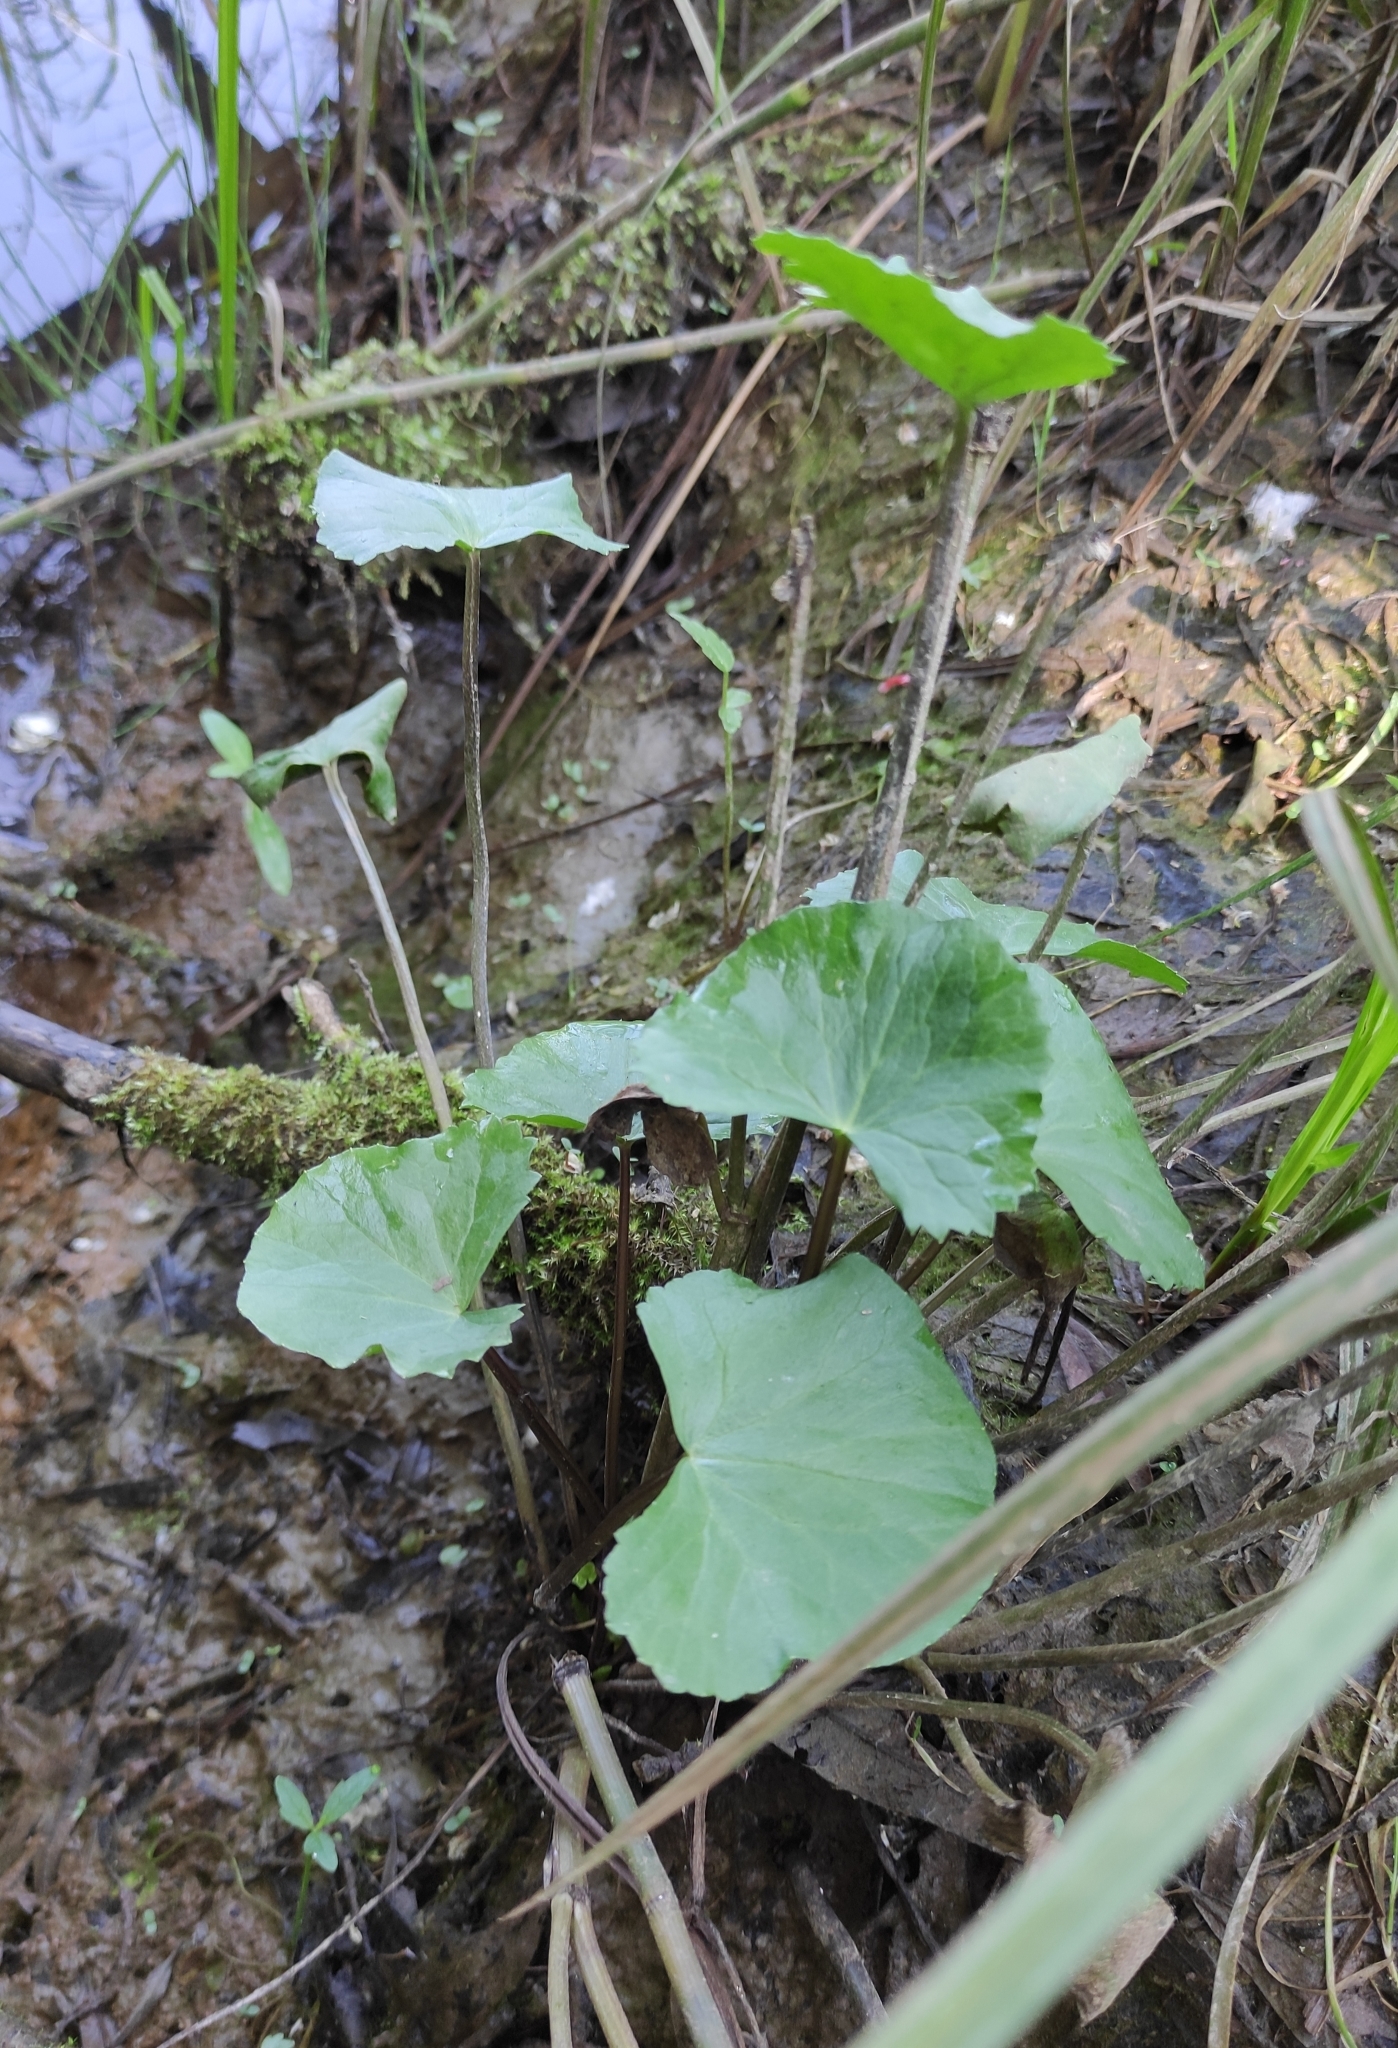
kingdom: Plantae
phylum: Tracheophyta
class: Magnoliopsida
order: Ranunculales
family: Ranunculaceae
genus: Caltha
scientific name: Caltha palustris
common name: Marsh marigold
